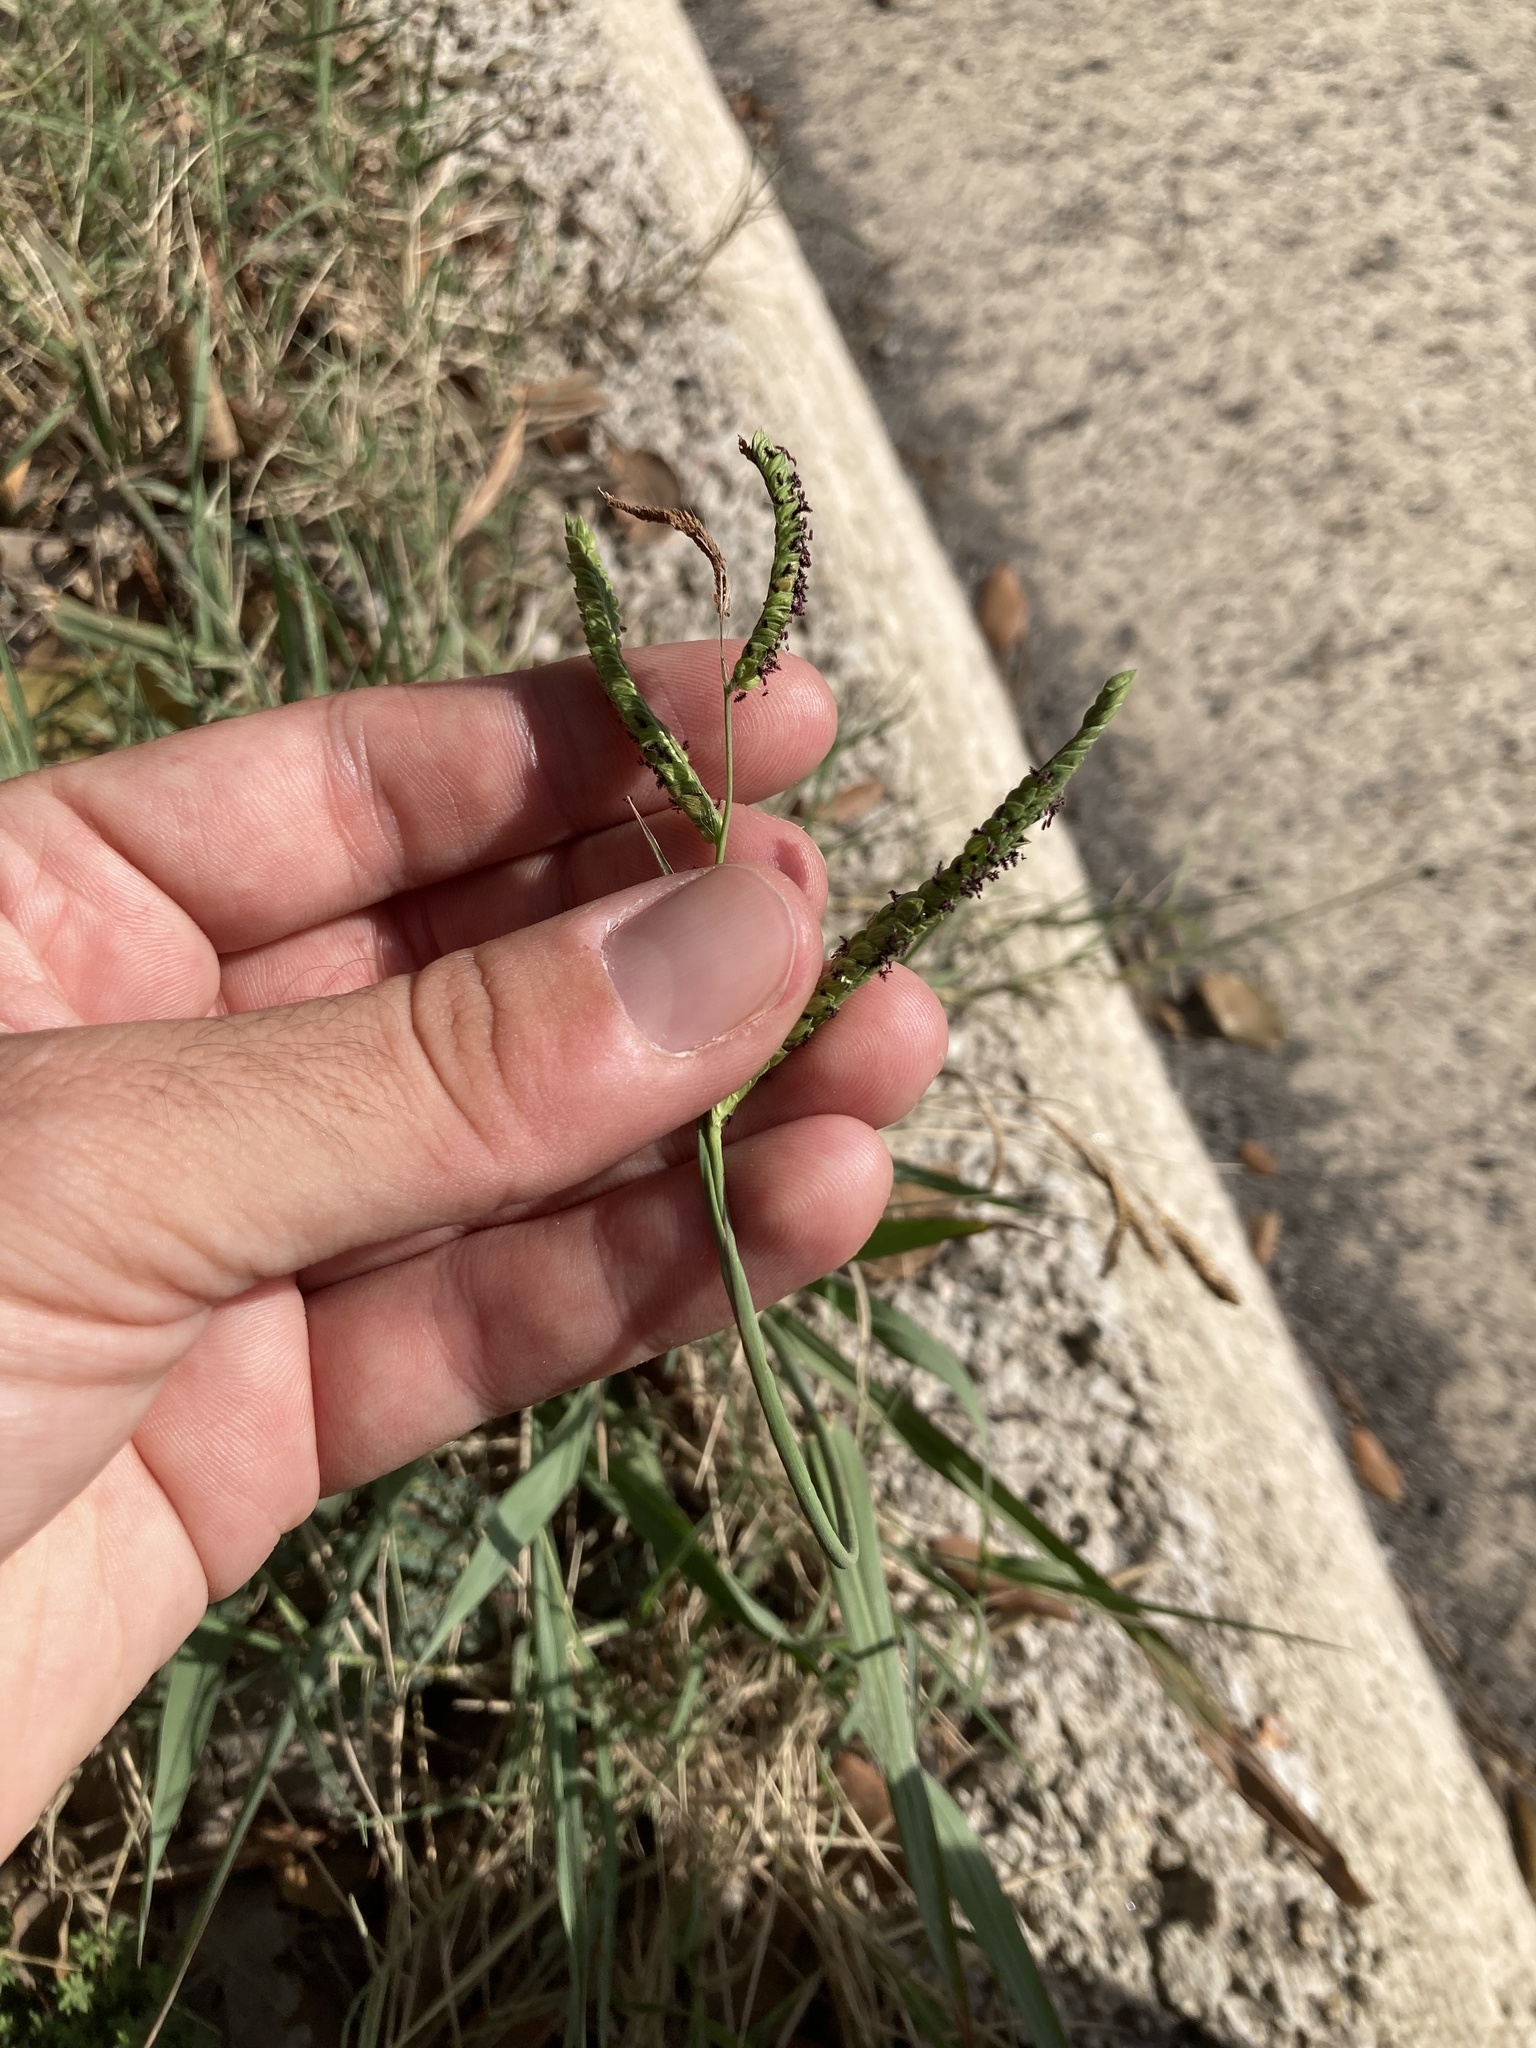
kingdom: Plantae
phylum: Tracheophyta
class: Liliopsida
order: Poales
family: Poaceae
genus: Paspalum
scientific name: Paspalum dilatatum
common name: Dallisgrass
